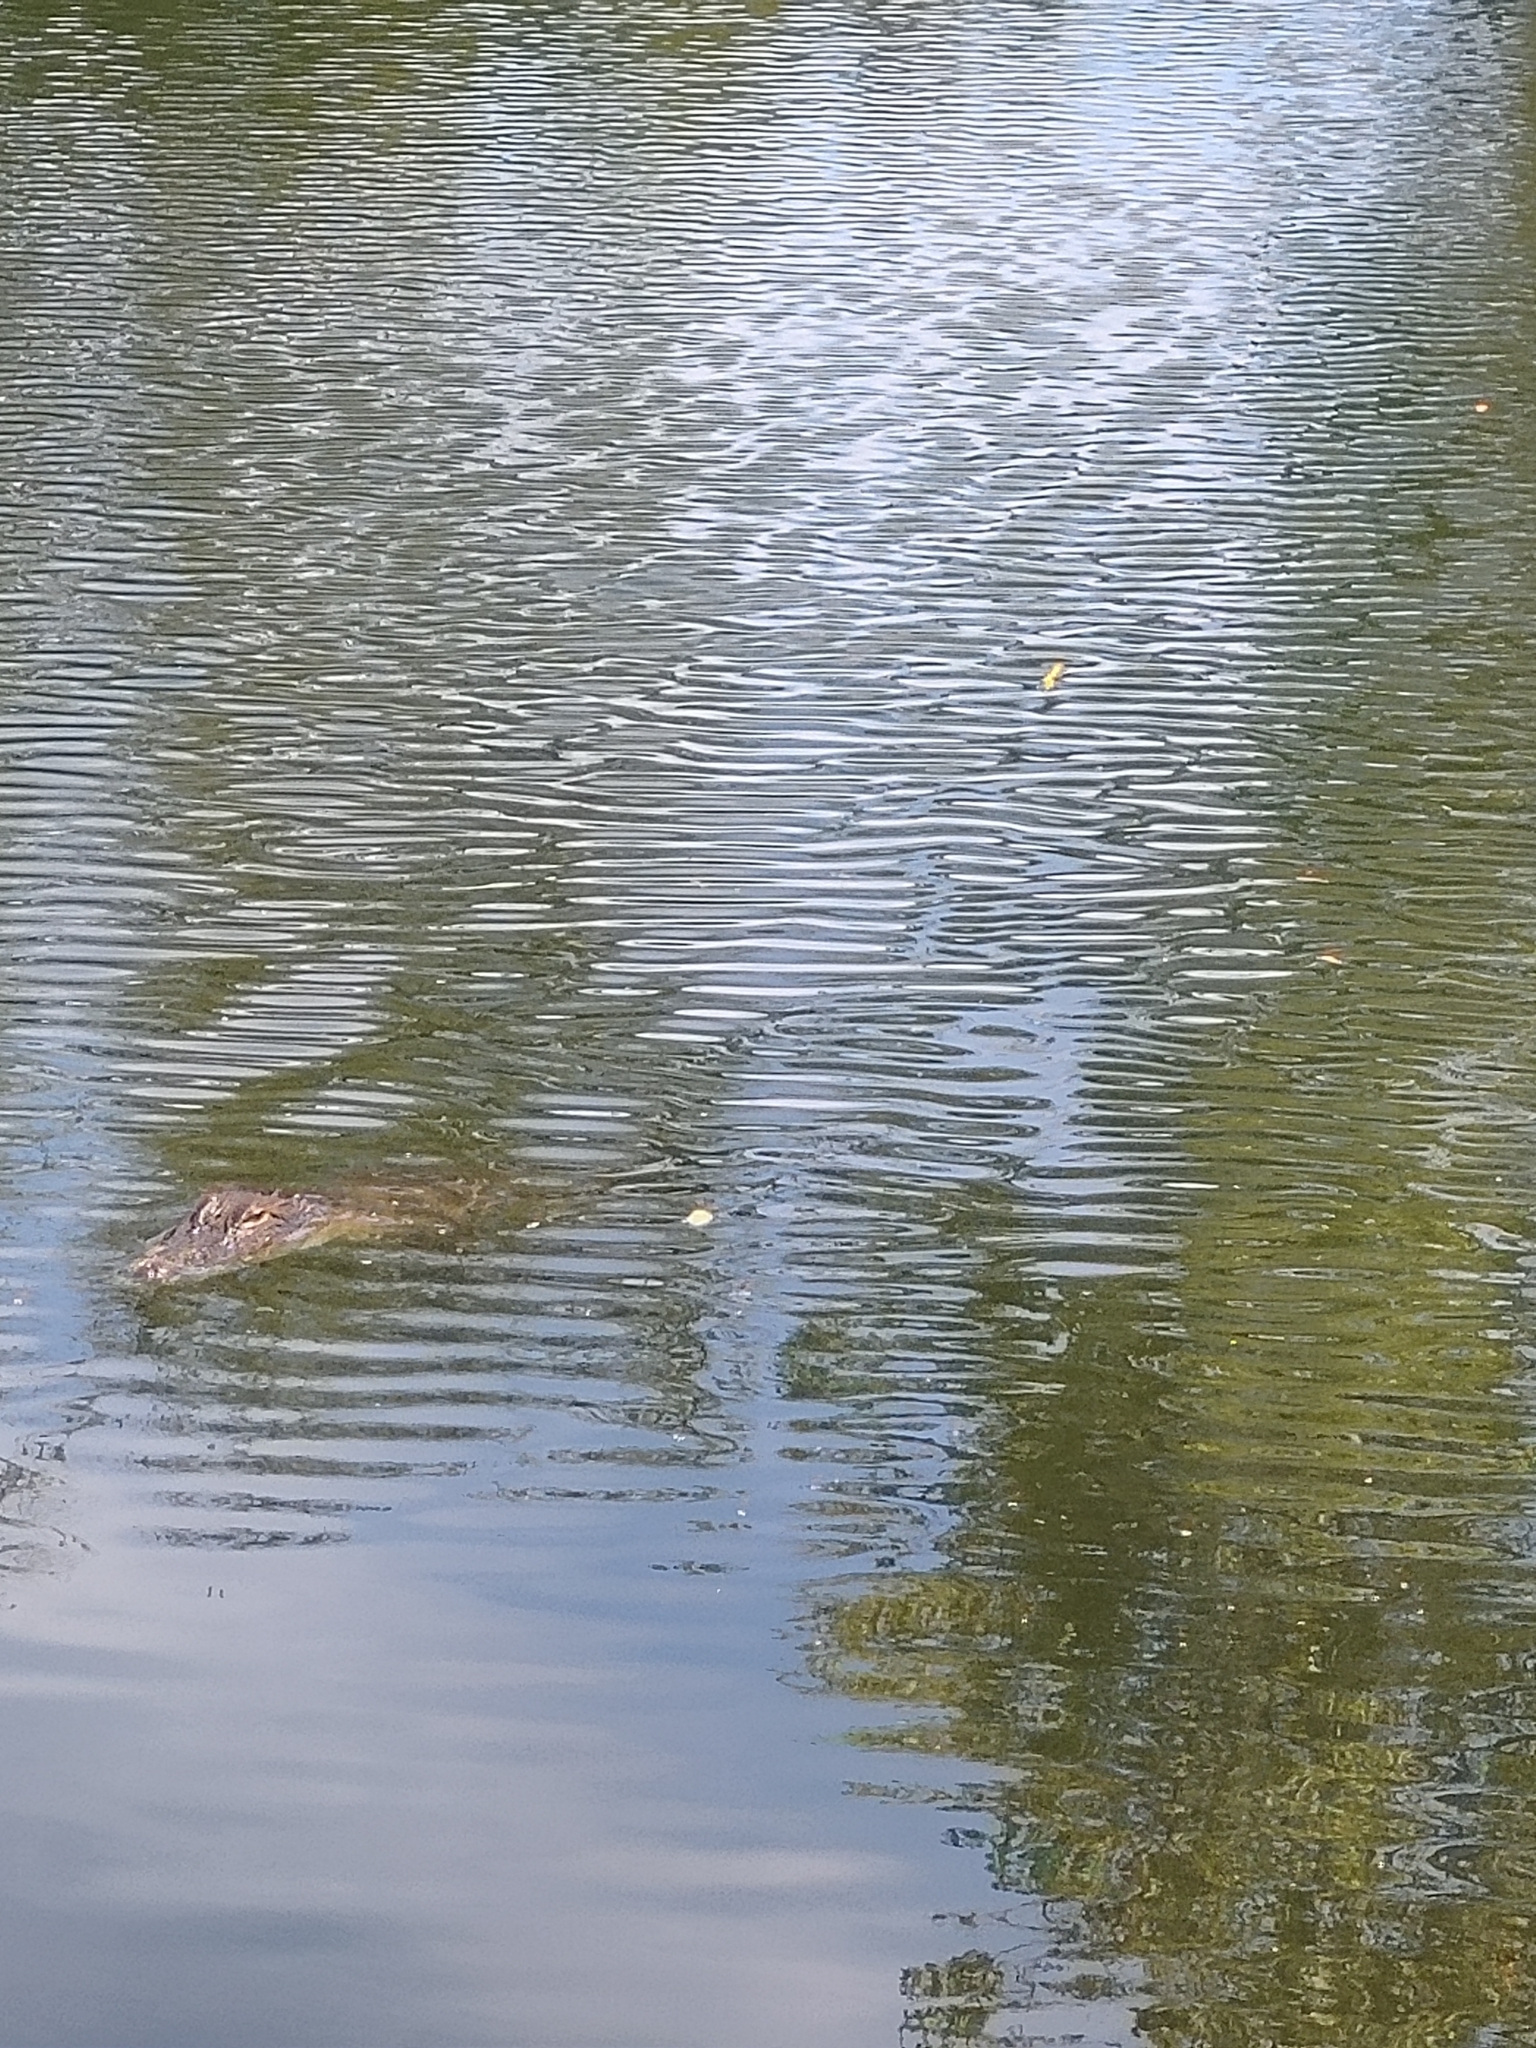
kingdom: Animalia
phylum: Chordata
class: Crocodylia
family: Alligatoridae
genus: Alligator
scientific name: Alligator mississippiensis
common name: American alligator
